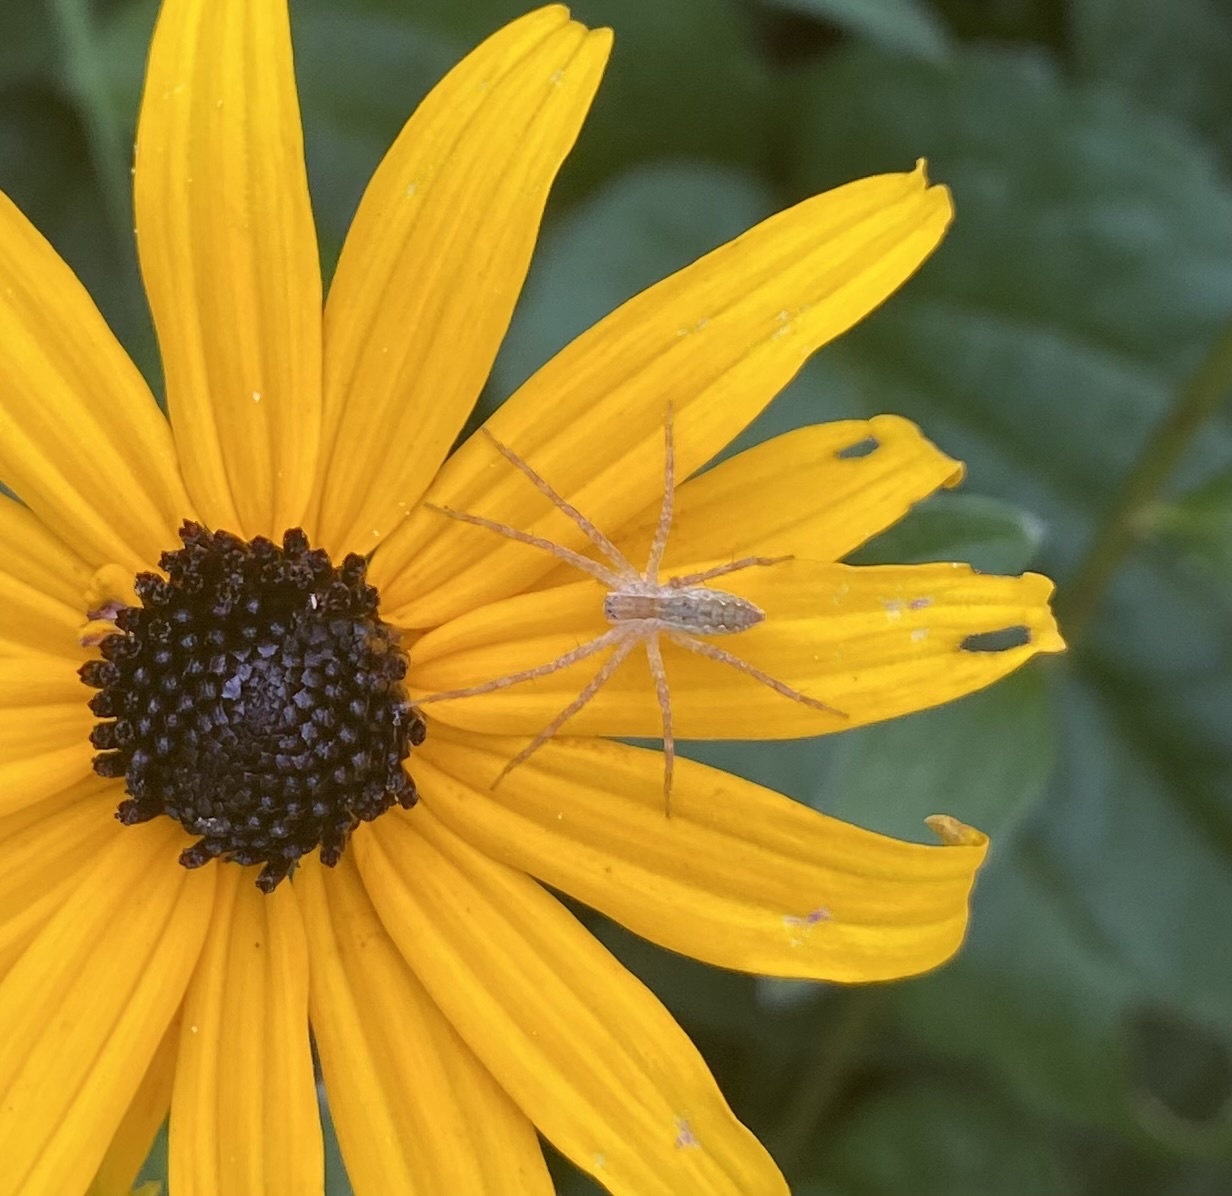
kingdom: Animalia
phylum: Arthropoda
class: Arachnida
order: Araneae
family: Pisauridae
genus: Pisaurina
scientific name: Pisaurina mira
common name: American nursery web spider
